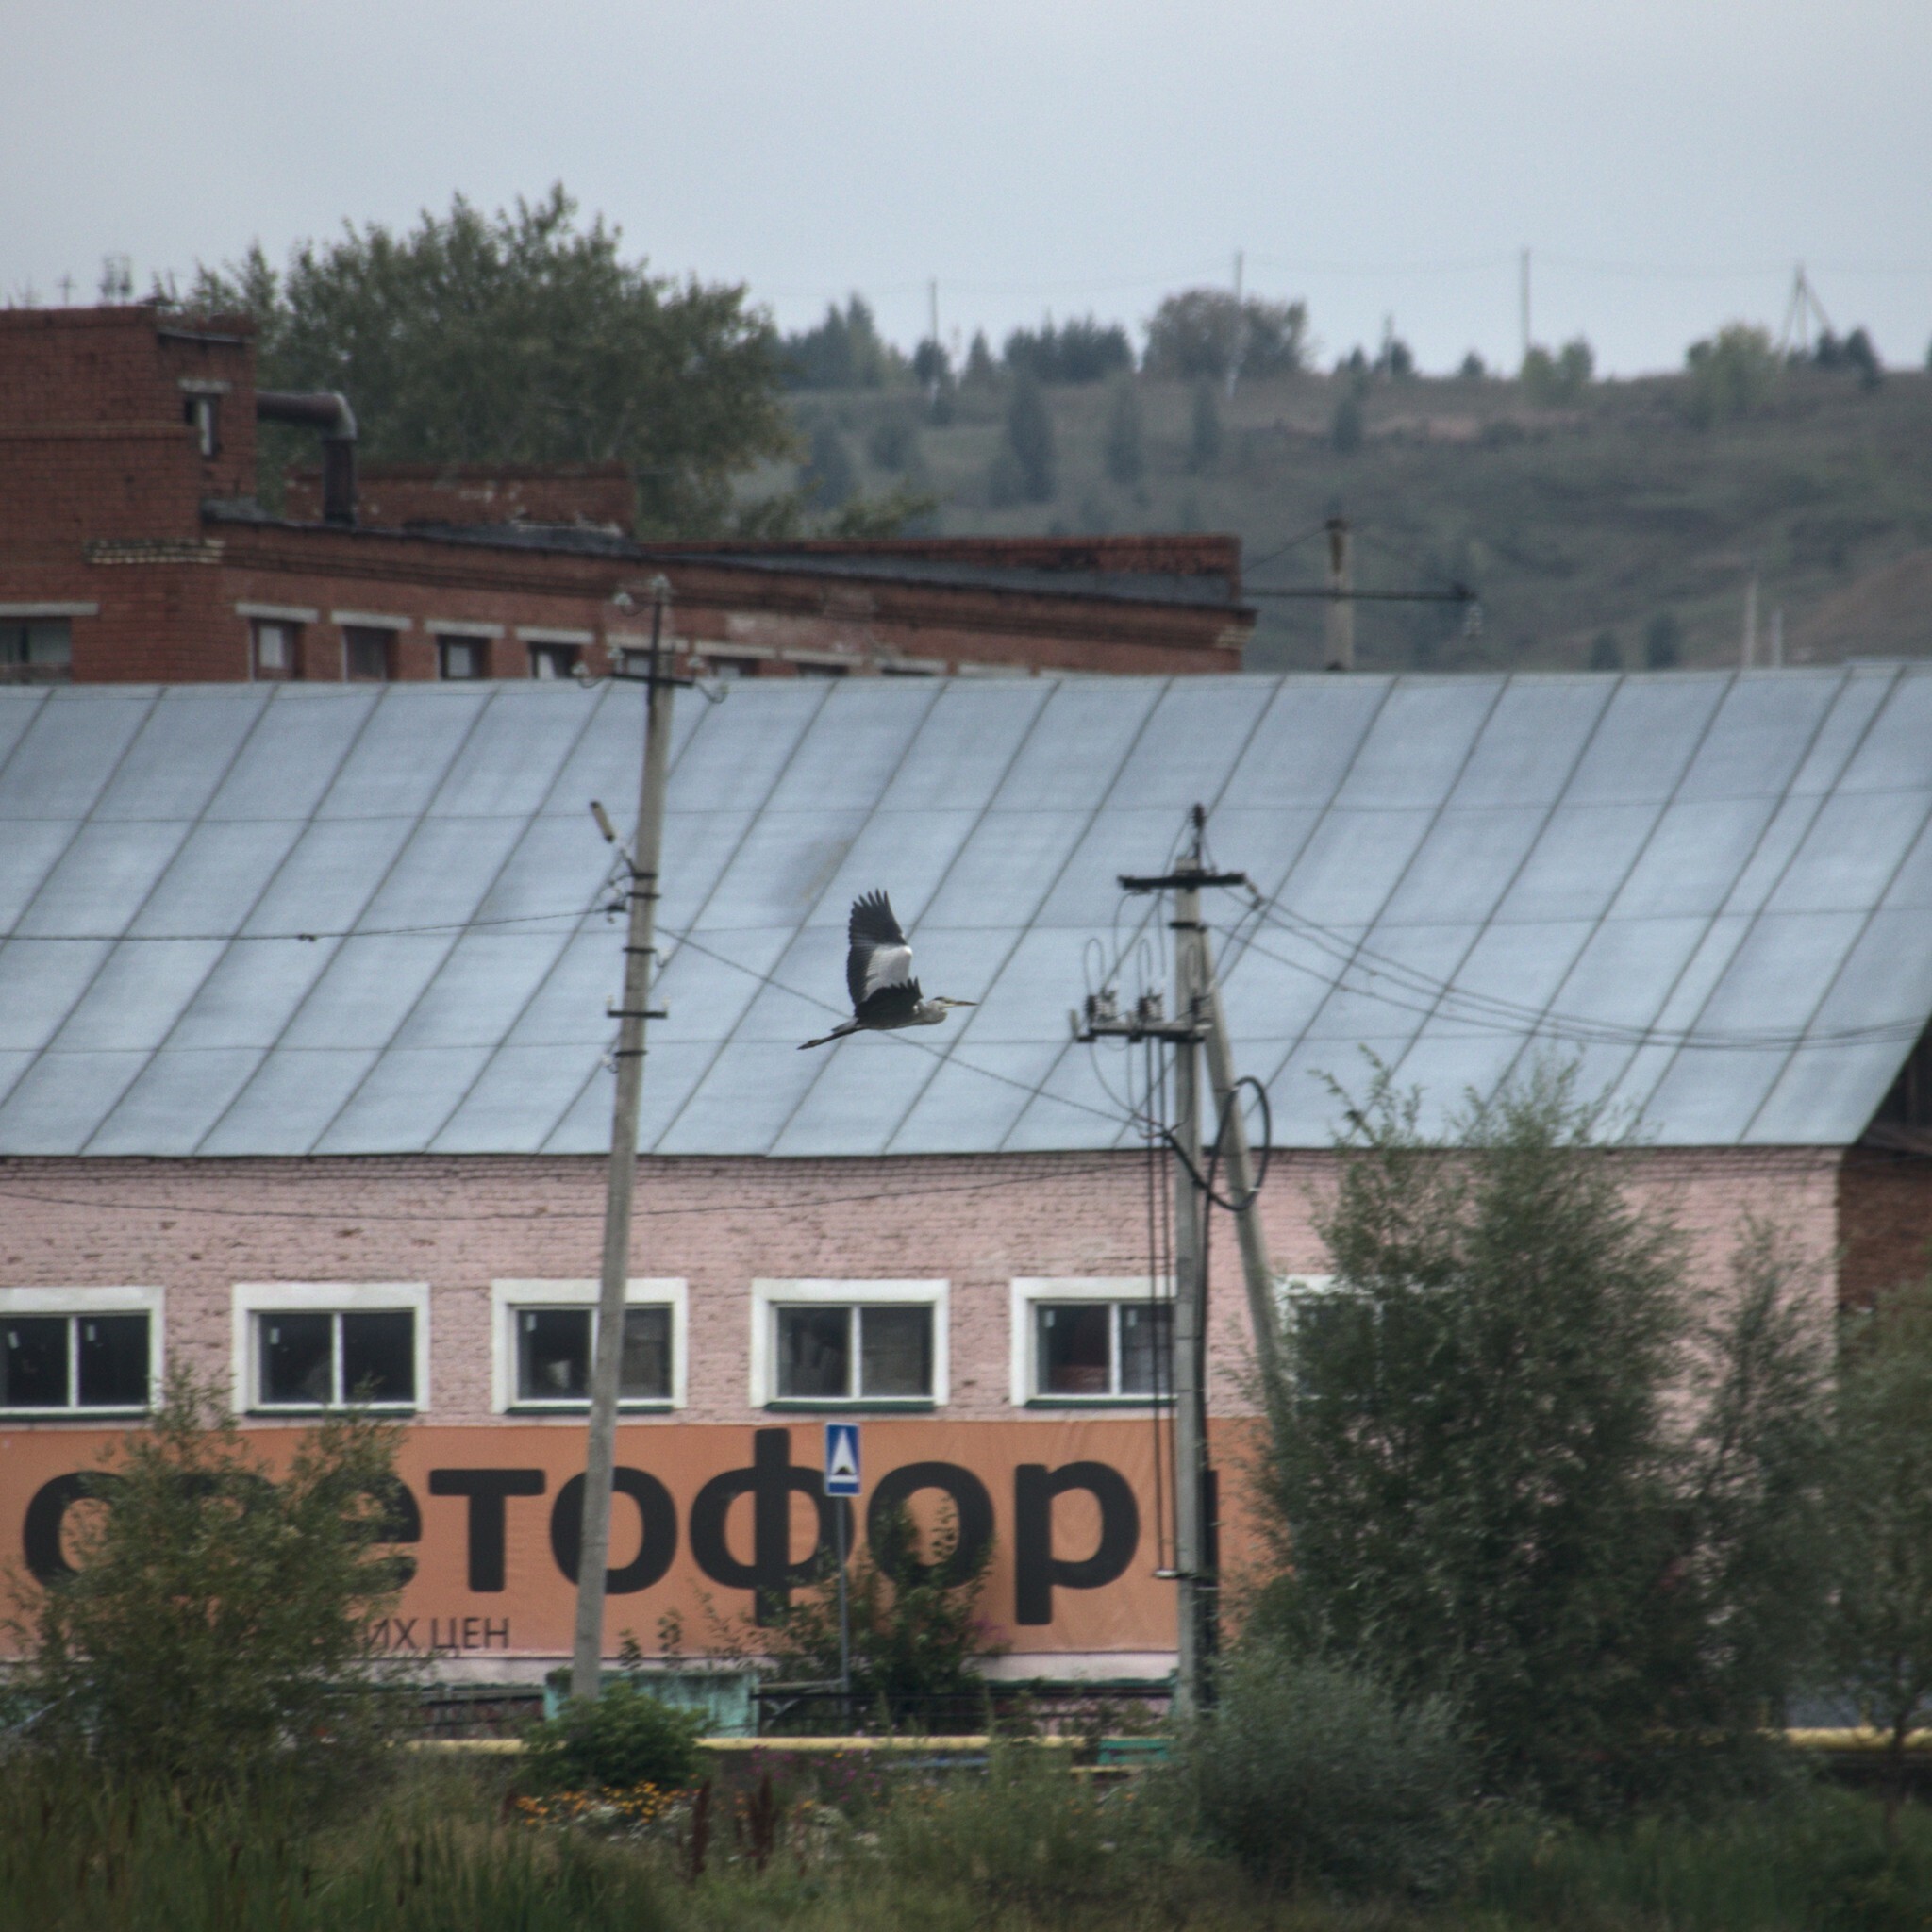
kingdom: Animalia
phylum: Chordata
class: Aves
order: Pelecaniformes
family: Ardeidae
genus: Ardea
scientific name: Ardea cinerea
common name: Grey heron
